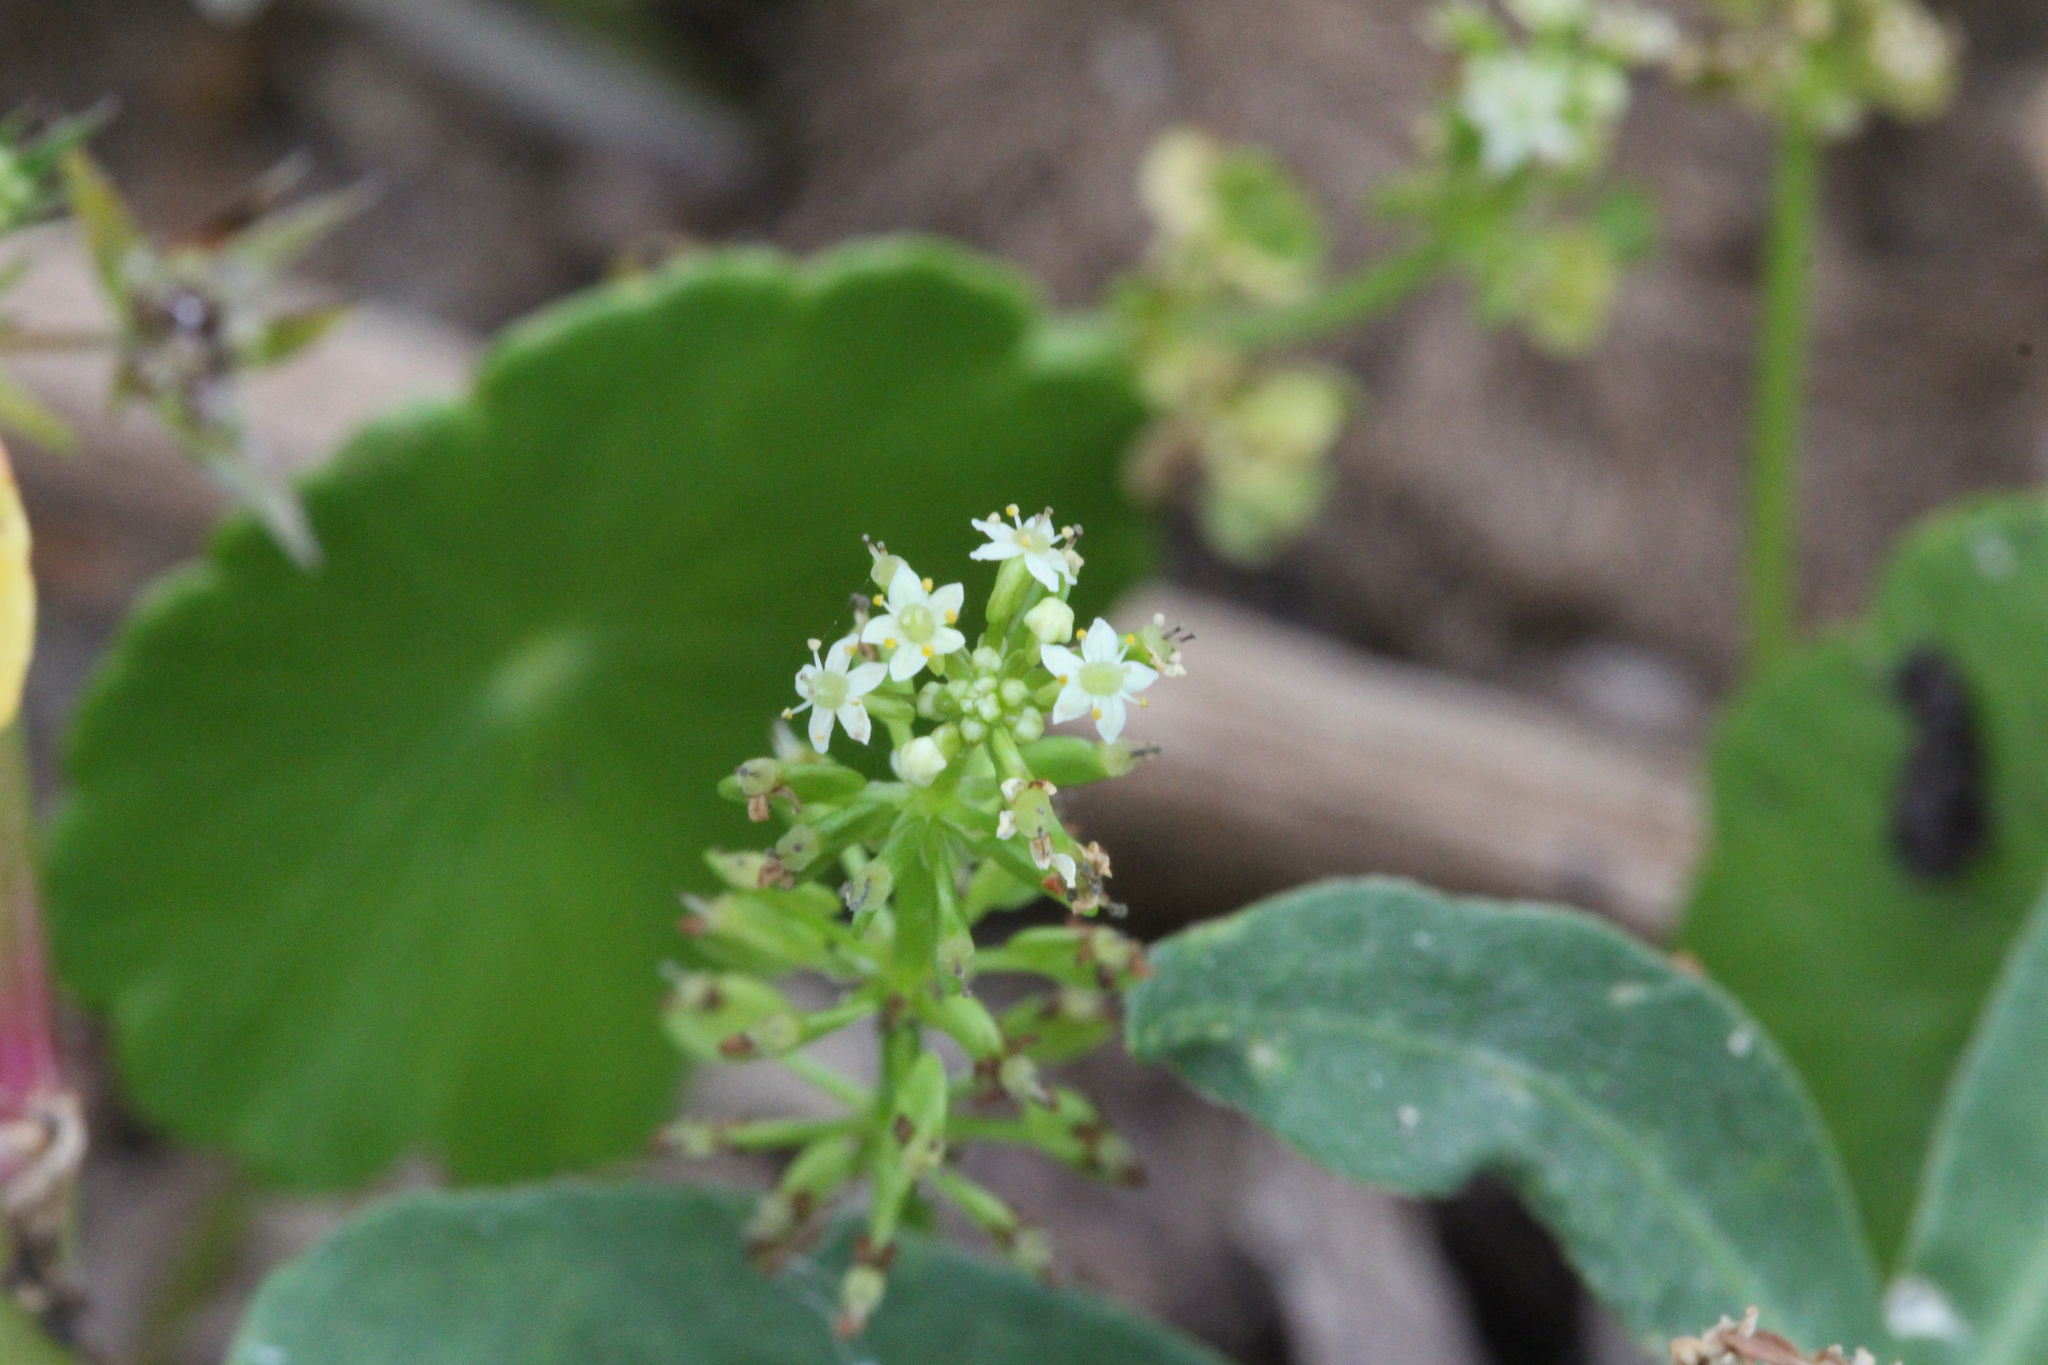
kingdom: Plantae
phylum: Tracheophyta
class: Magnoliopsida
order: Apiales
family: Araliaceae
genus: Hydrocotyle
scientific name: Hydrocotyle prolifera
